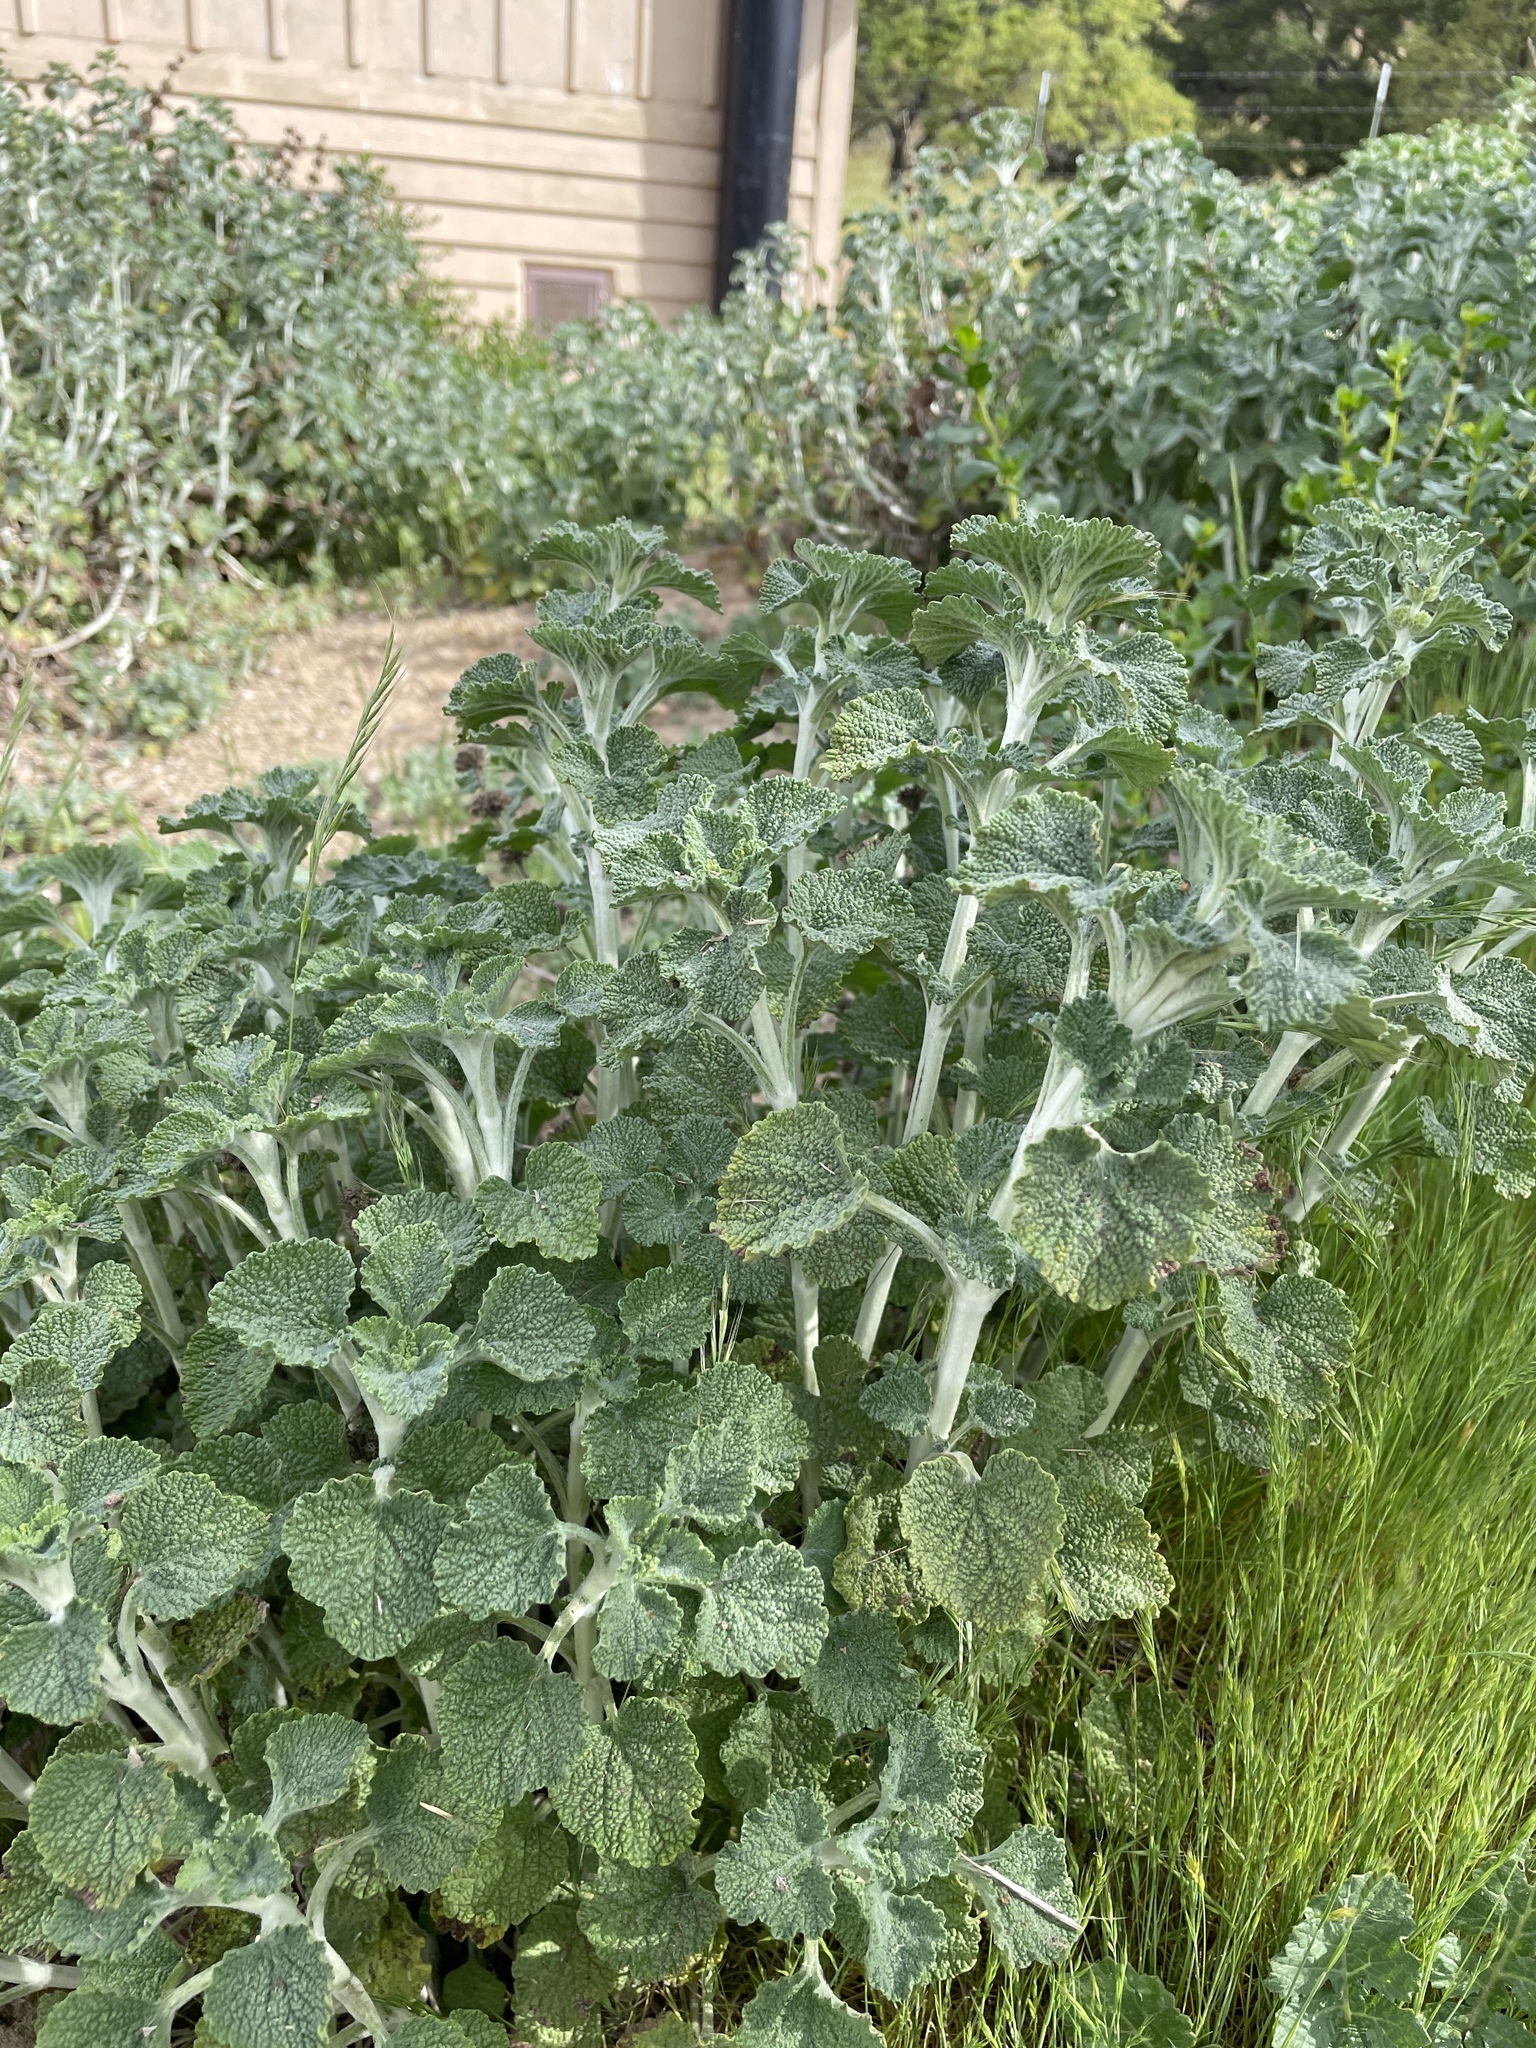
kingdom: Plantae
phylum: Tracheophyta
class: Magnoliopsida
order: Lamiales
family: Lamiaceae
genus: Marrubium
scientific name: Marrubium vulgare
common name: Horehound
